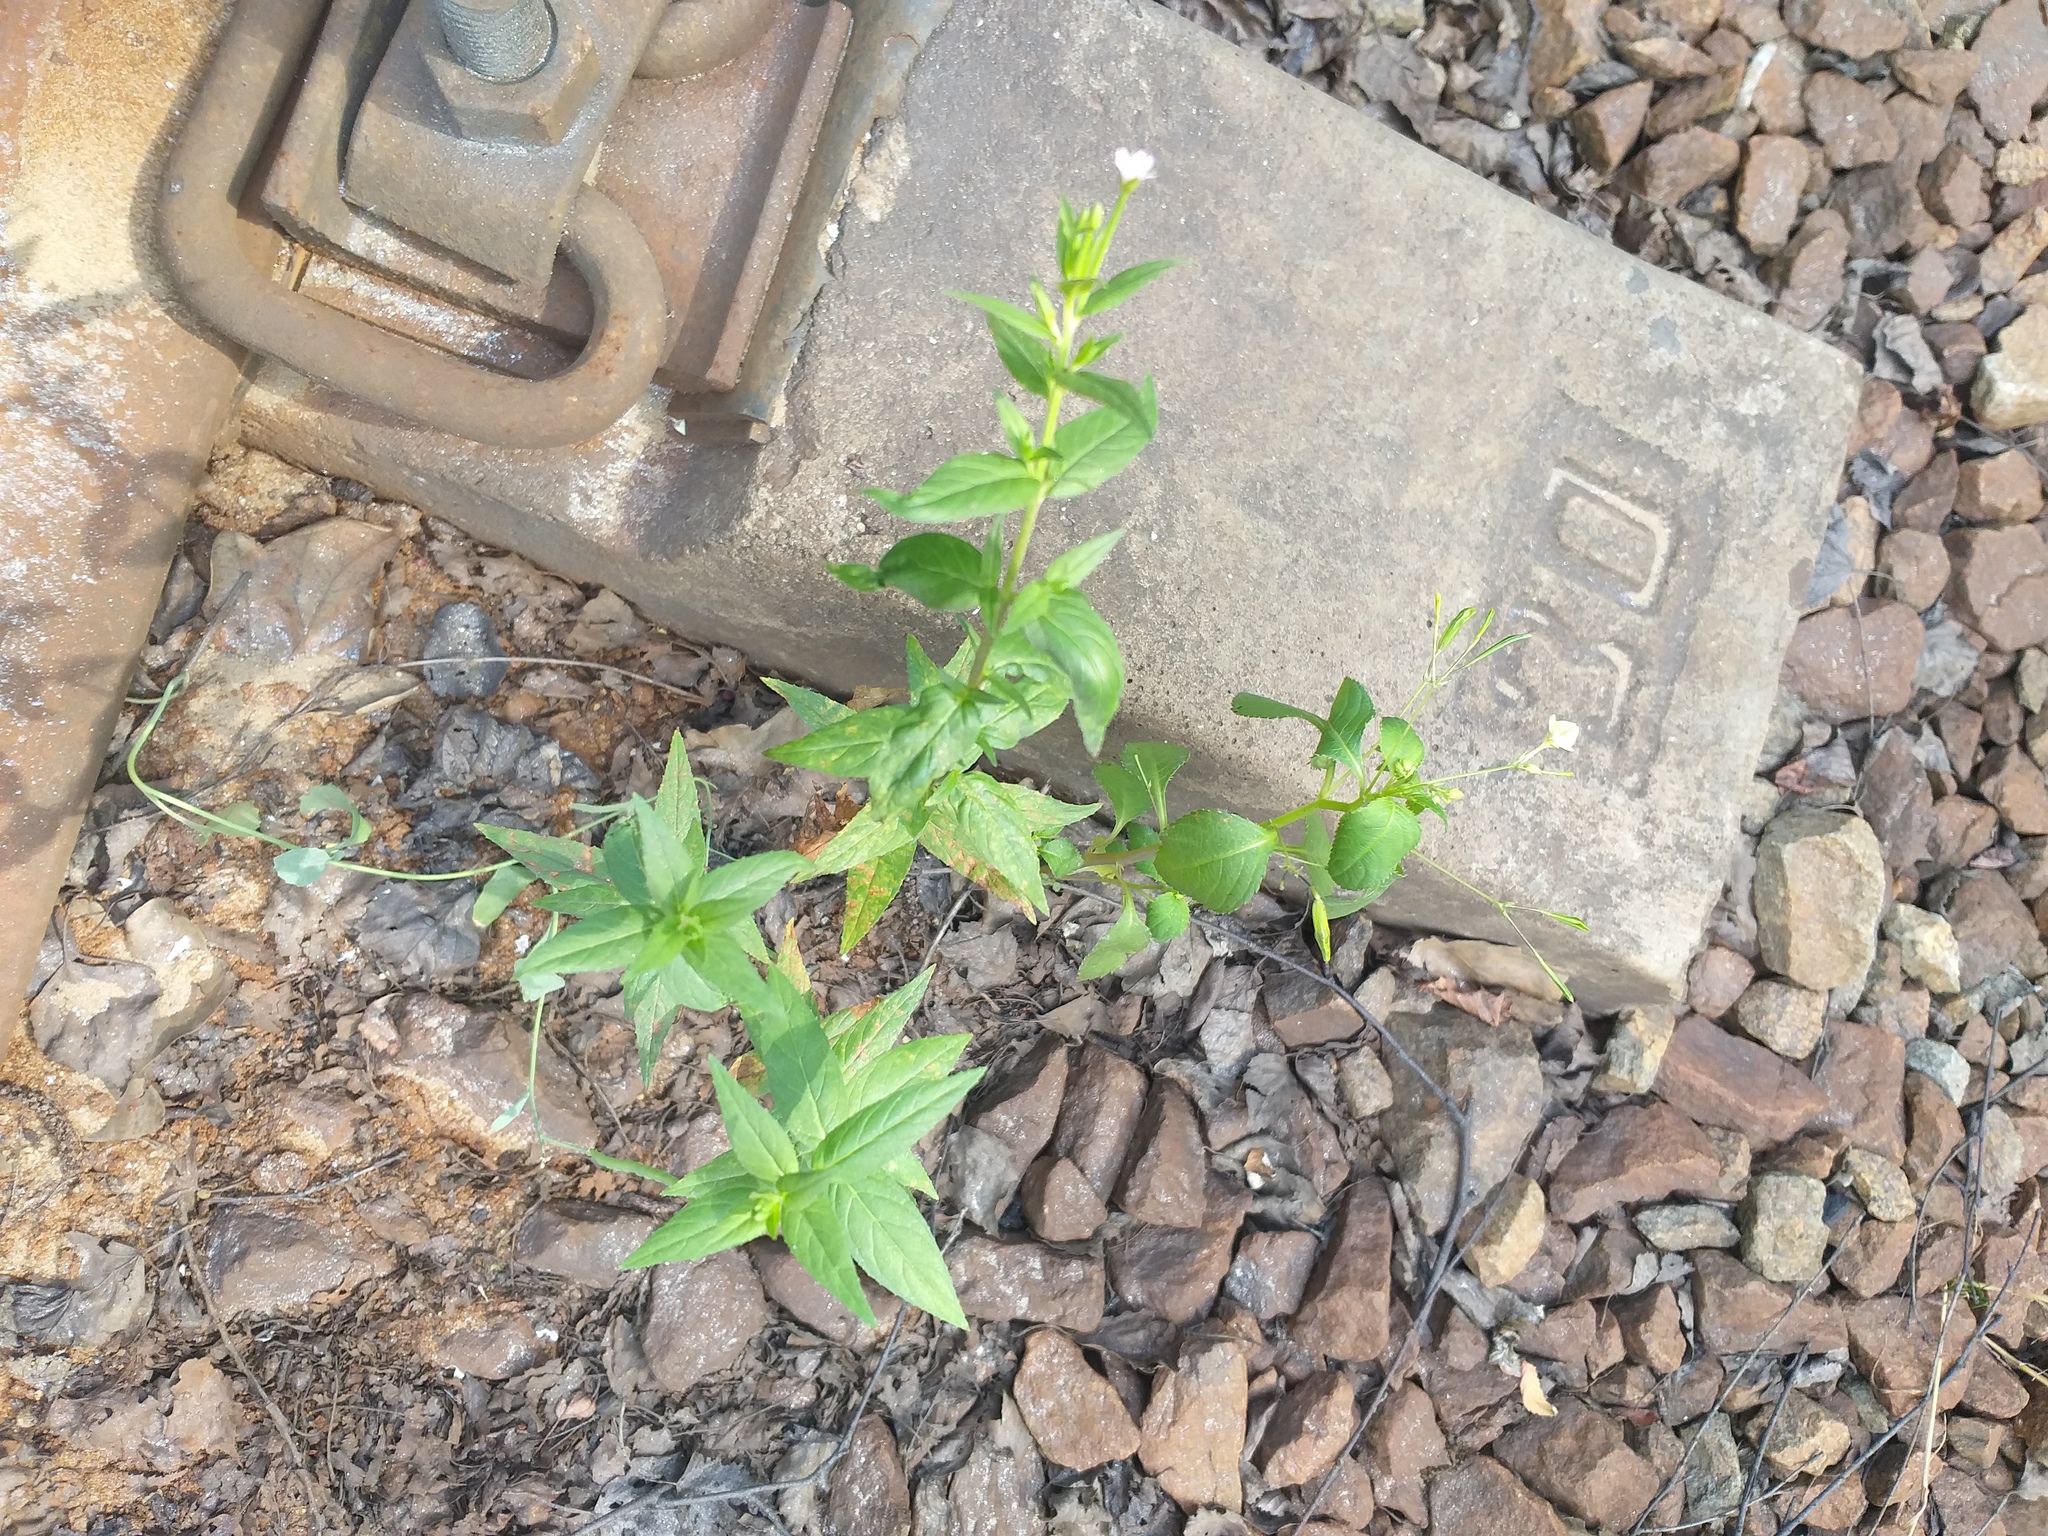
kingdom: Plantae
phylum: Tracheophyta
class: Magnoliopsida
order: Myrtales
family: Onagraceae
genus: Epilobium
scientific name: Epilobium ciliatum
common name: American willowherb
